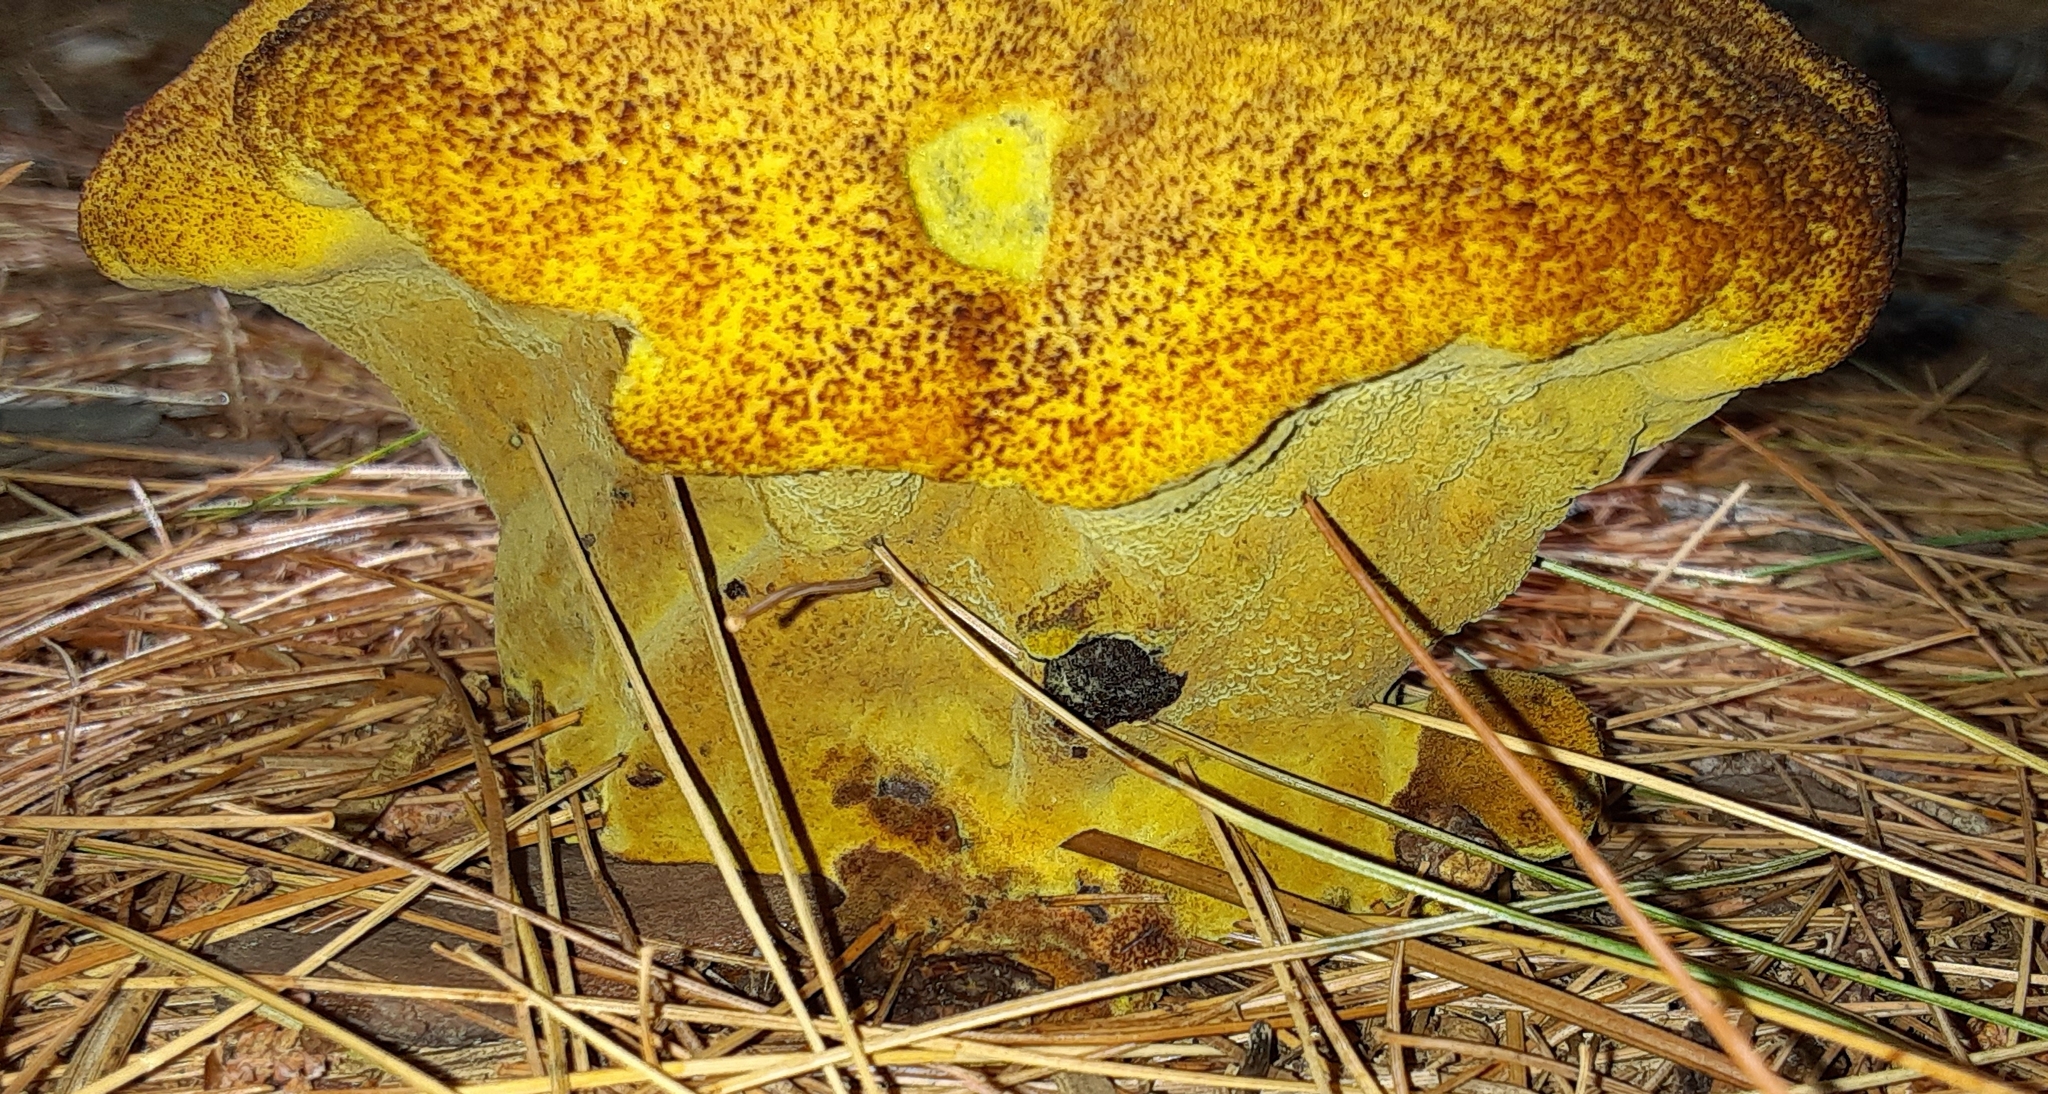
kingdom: Fungi
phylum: Basidiomycota
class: Agaricomycetes
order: Polyporales
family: Laetiporaceae
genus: Phaeolus
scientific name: Phaeolus schweinitzii
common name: Dyer's mazegill
